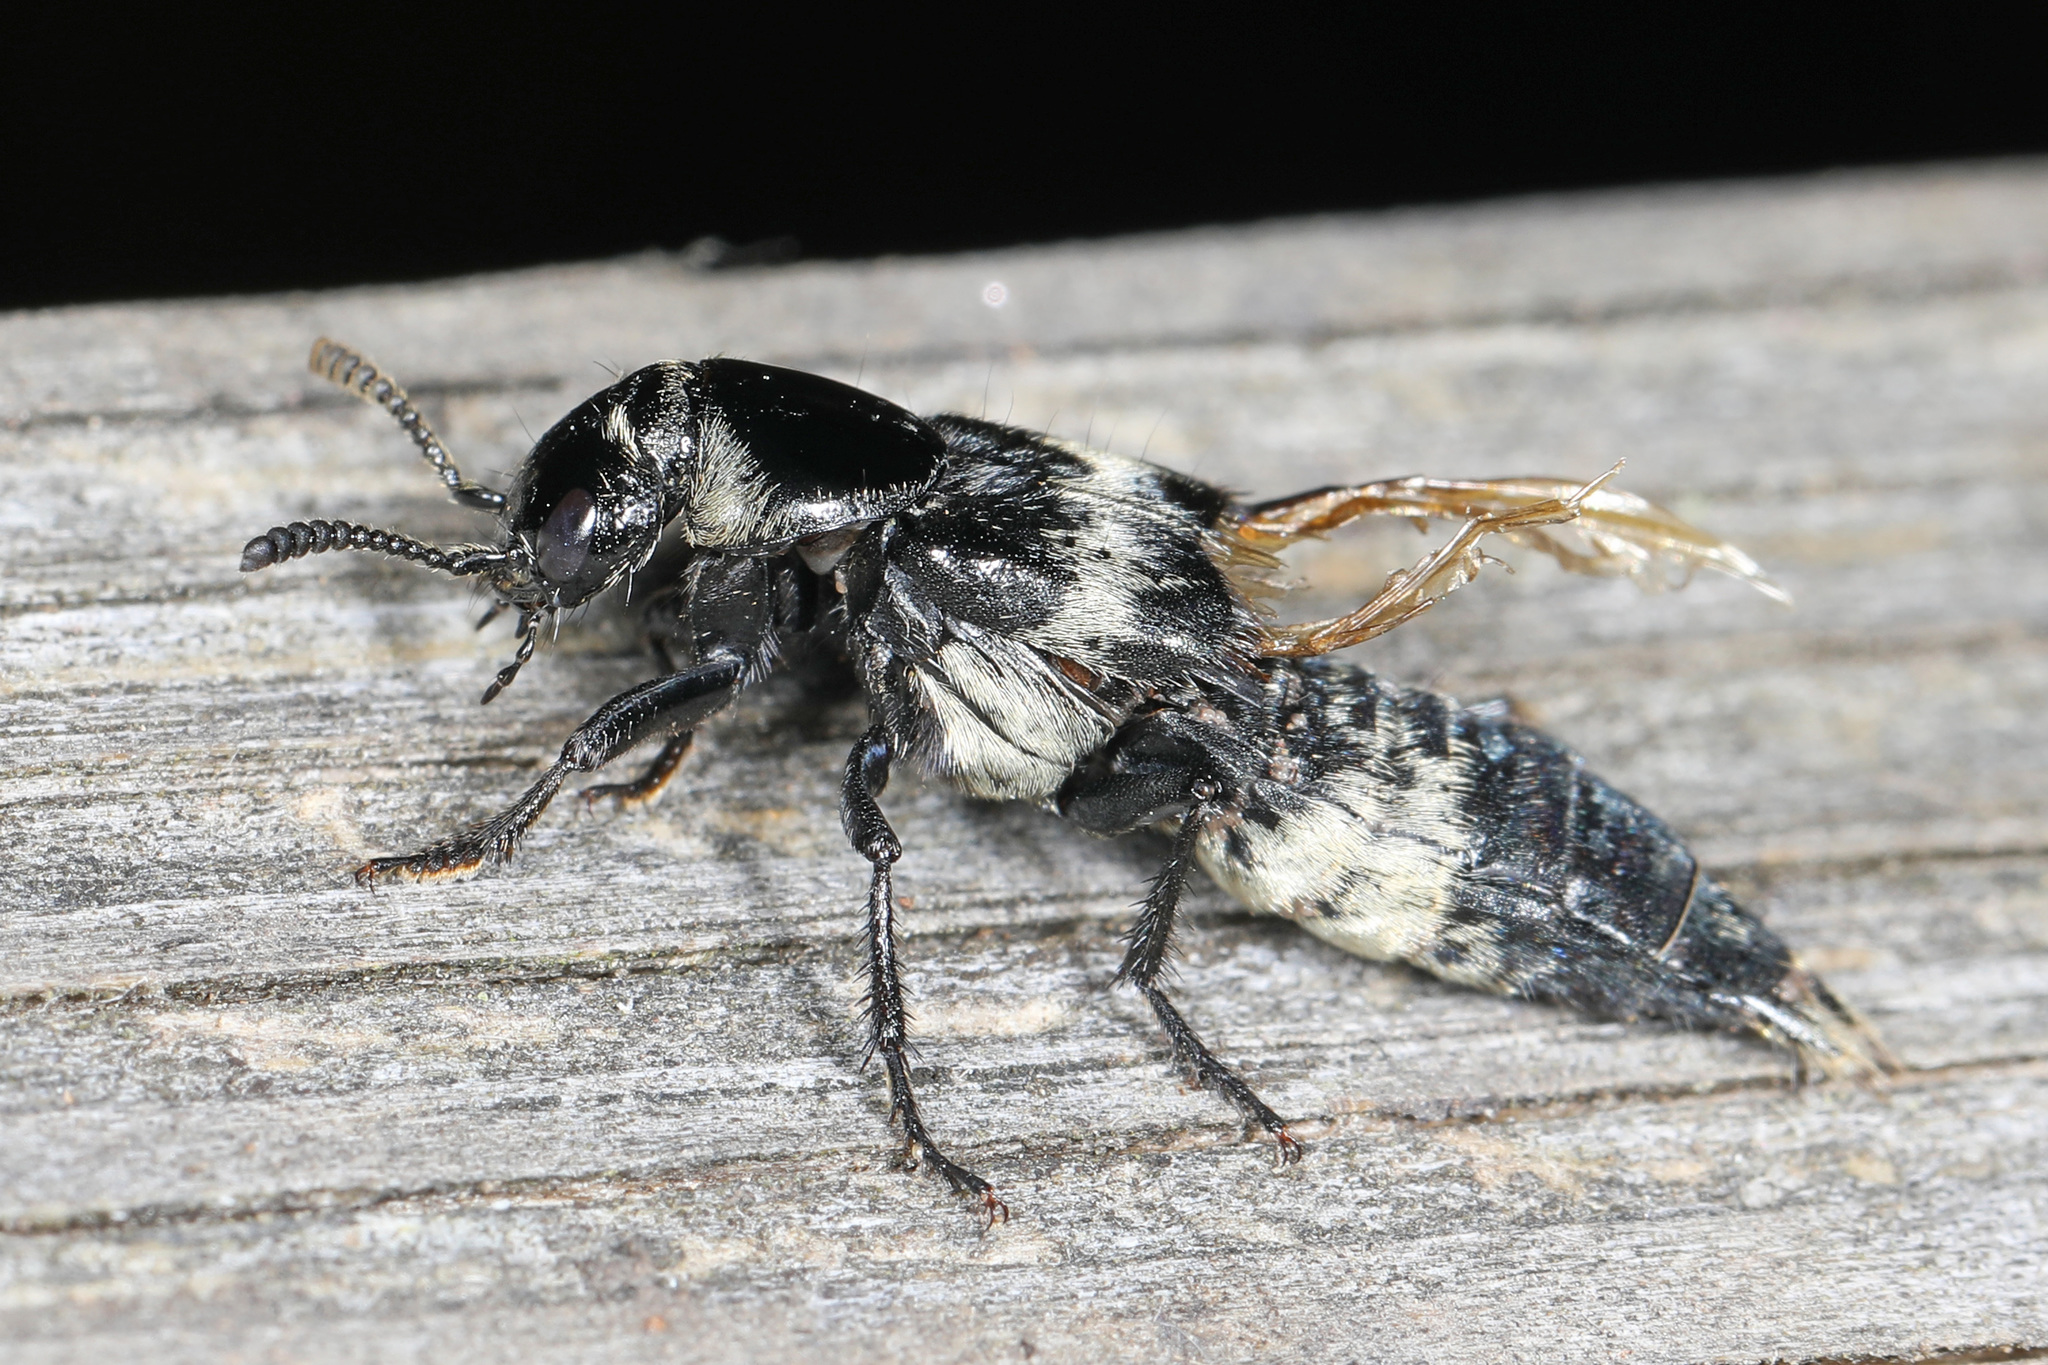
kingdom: Animalia
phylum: Arthropoda
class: Insecta
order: Coleoptera
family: Staphylinidae
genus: Creophilus
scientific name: Creophilus maxillosus
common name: Hairy rove beetle
